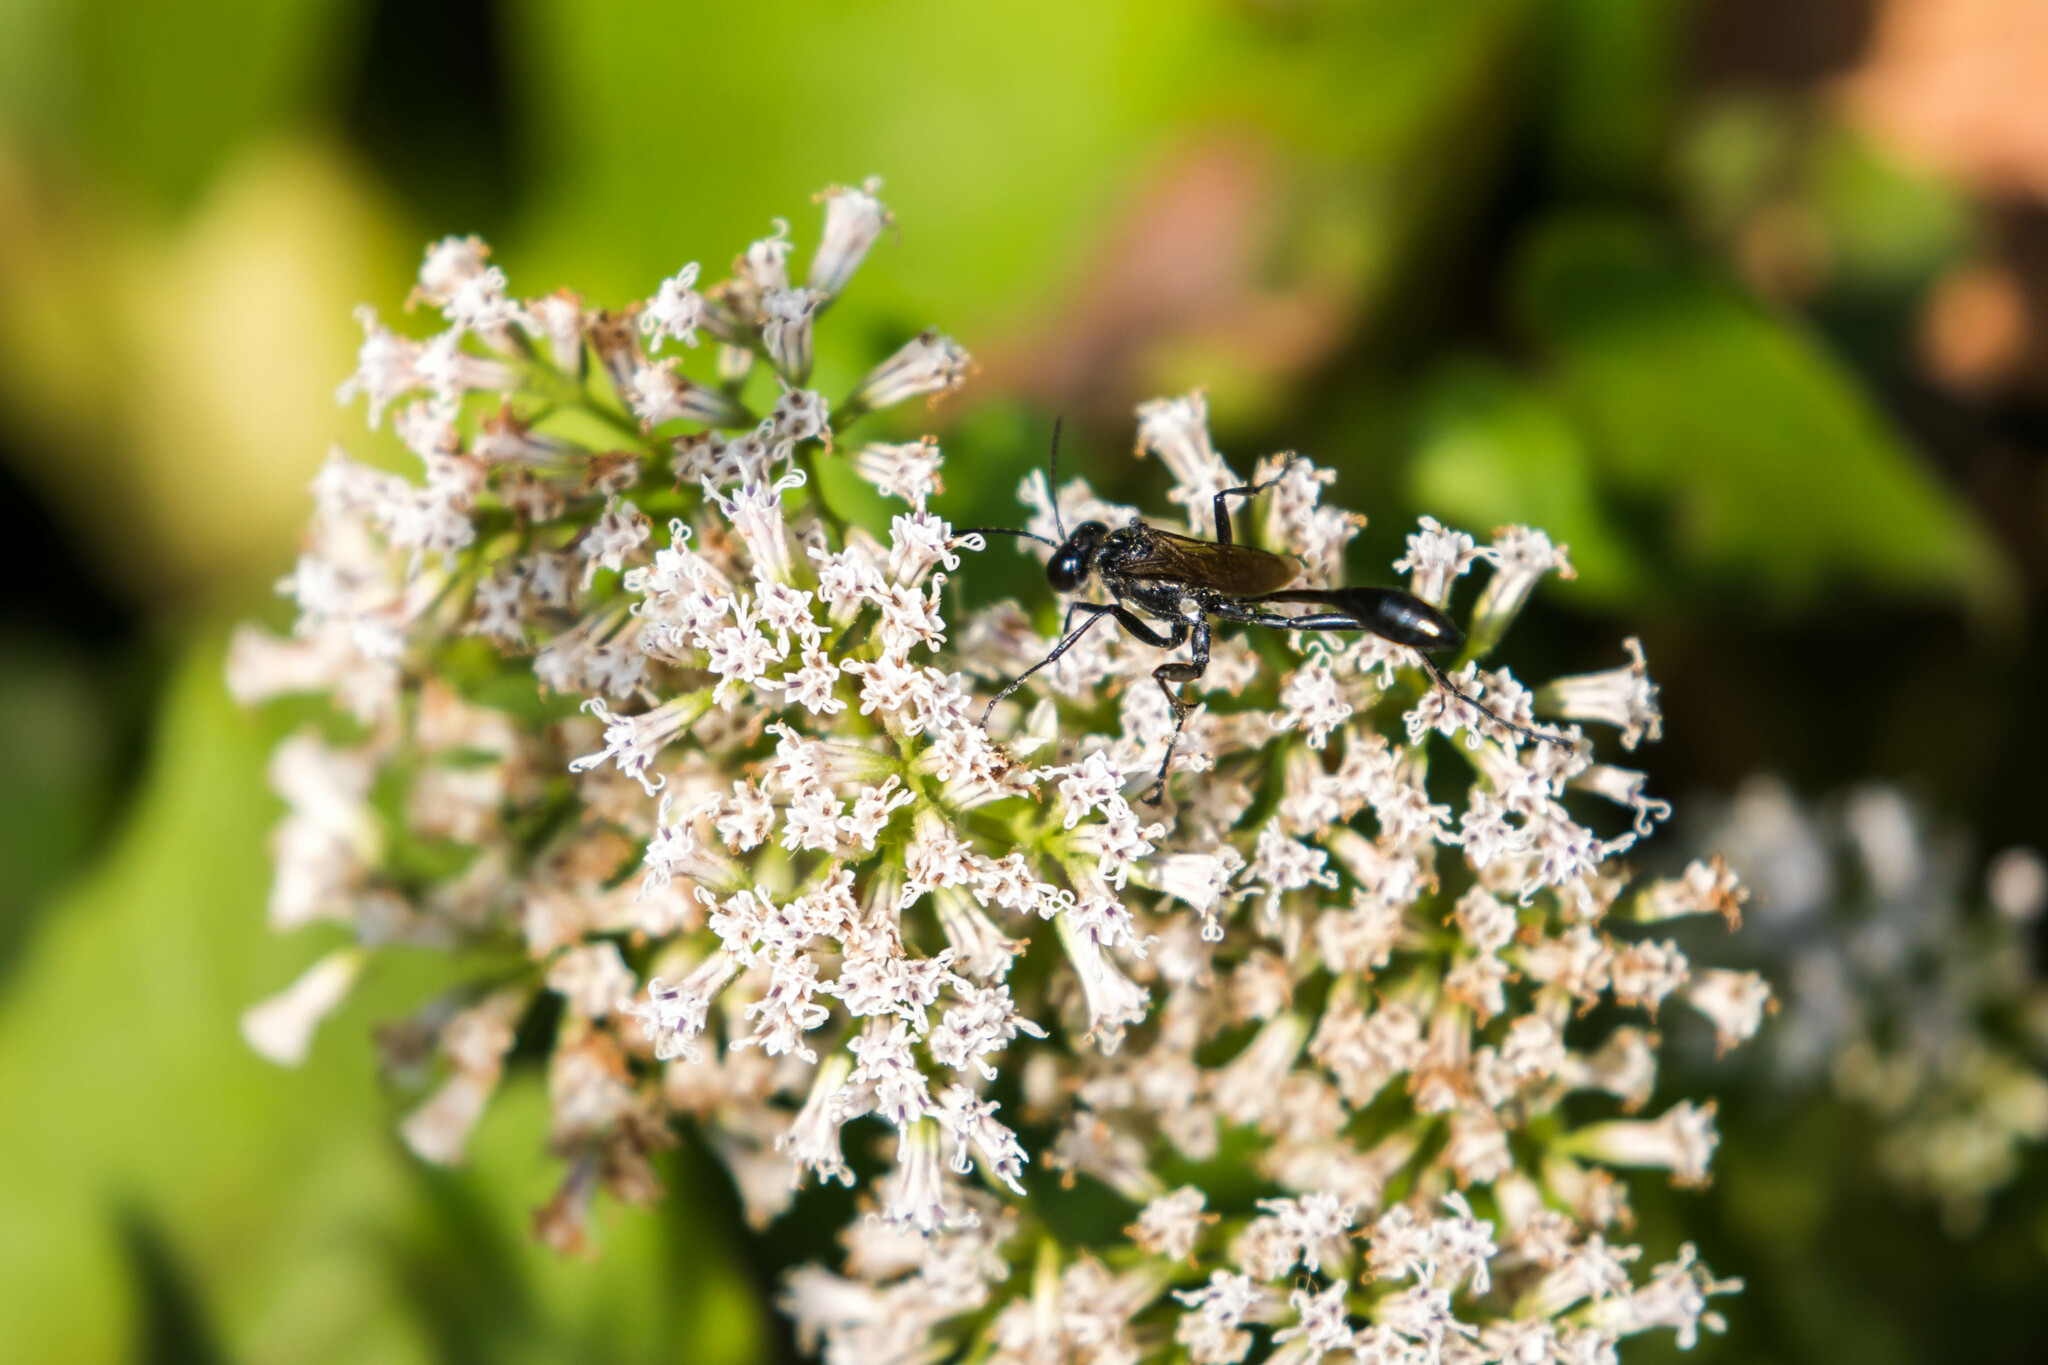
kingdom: Animalia
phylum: Arthropoda
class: Insecta
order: Hymenoptera
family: Sphecidae
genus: Eremnophila
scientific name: Eremnophila aureonotata
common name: Gold-marked thread-waisted wasp
